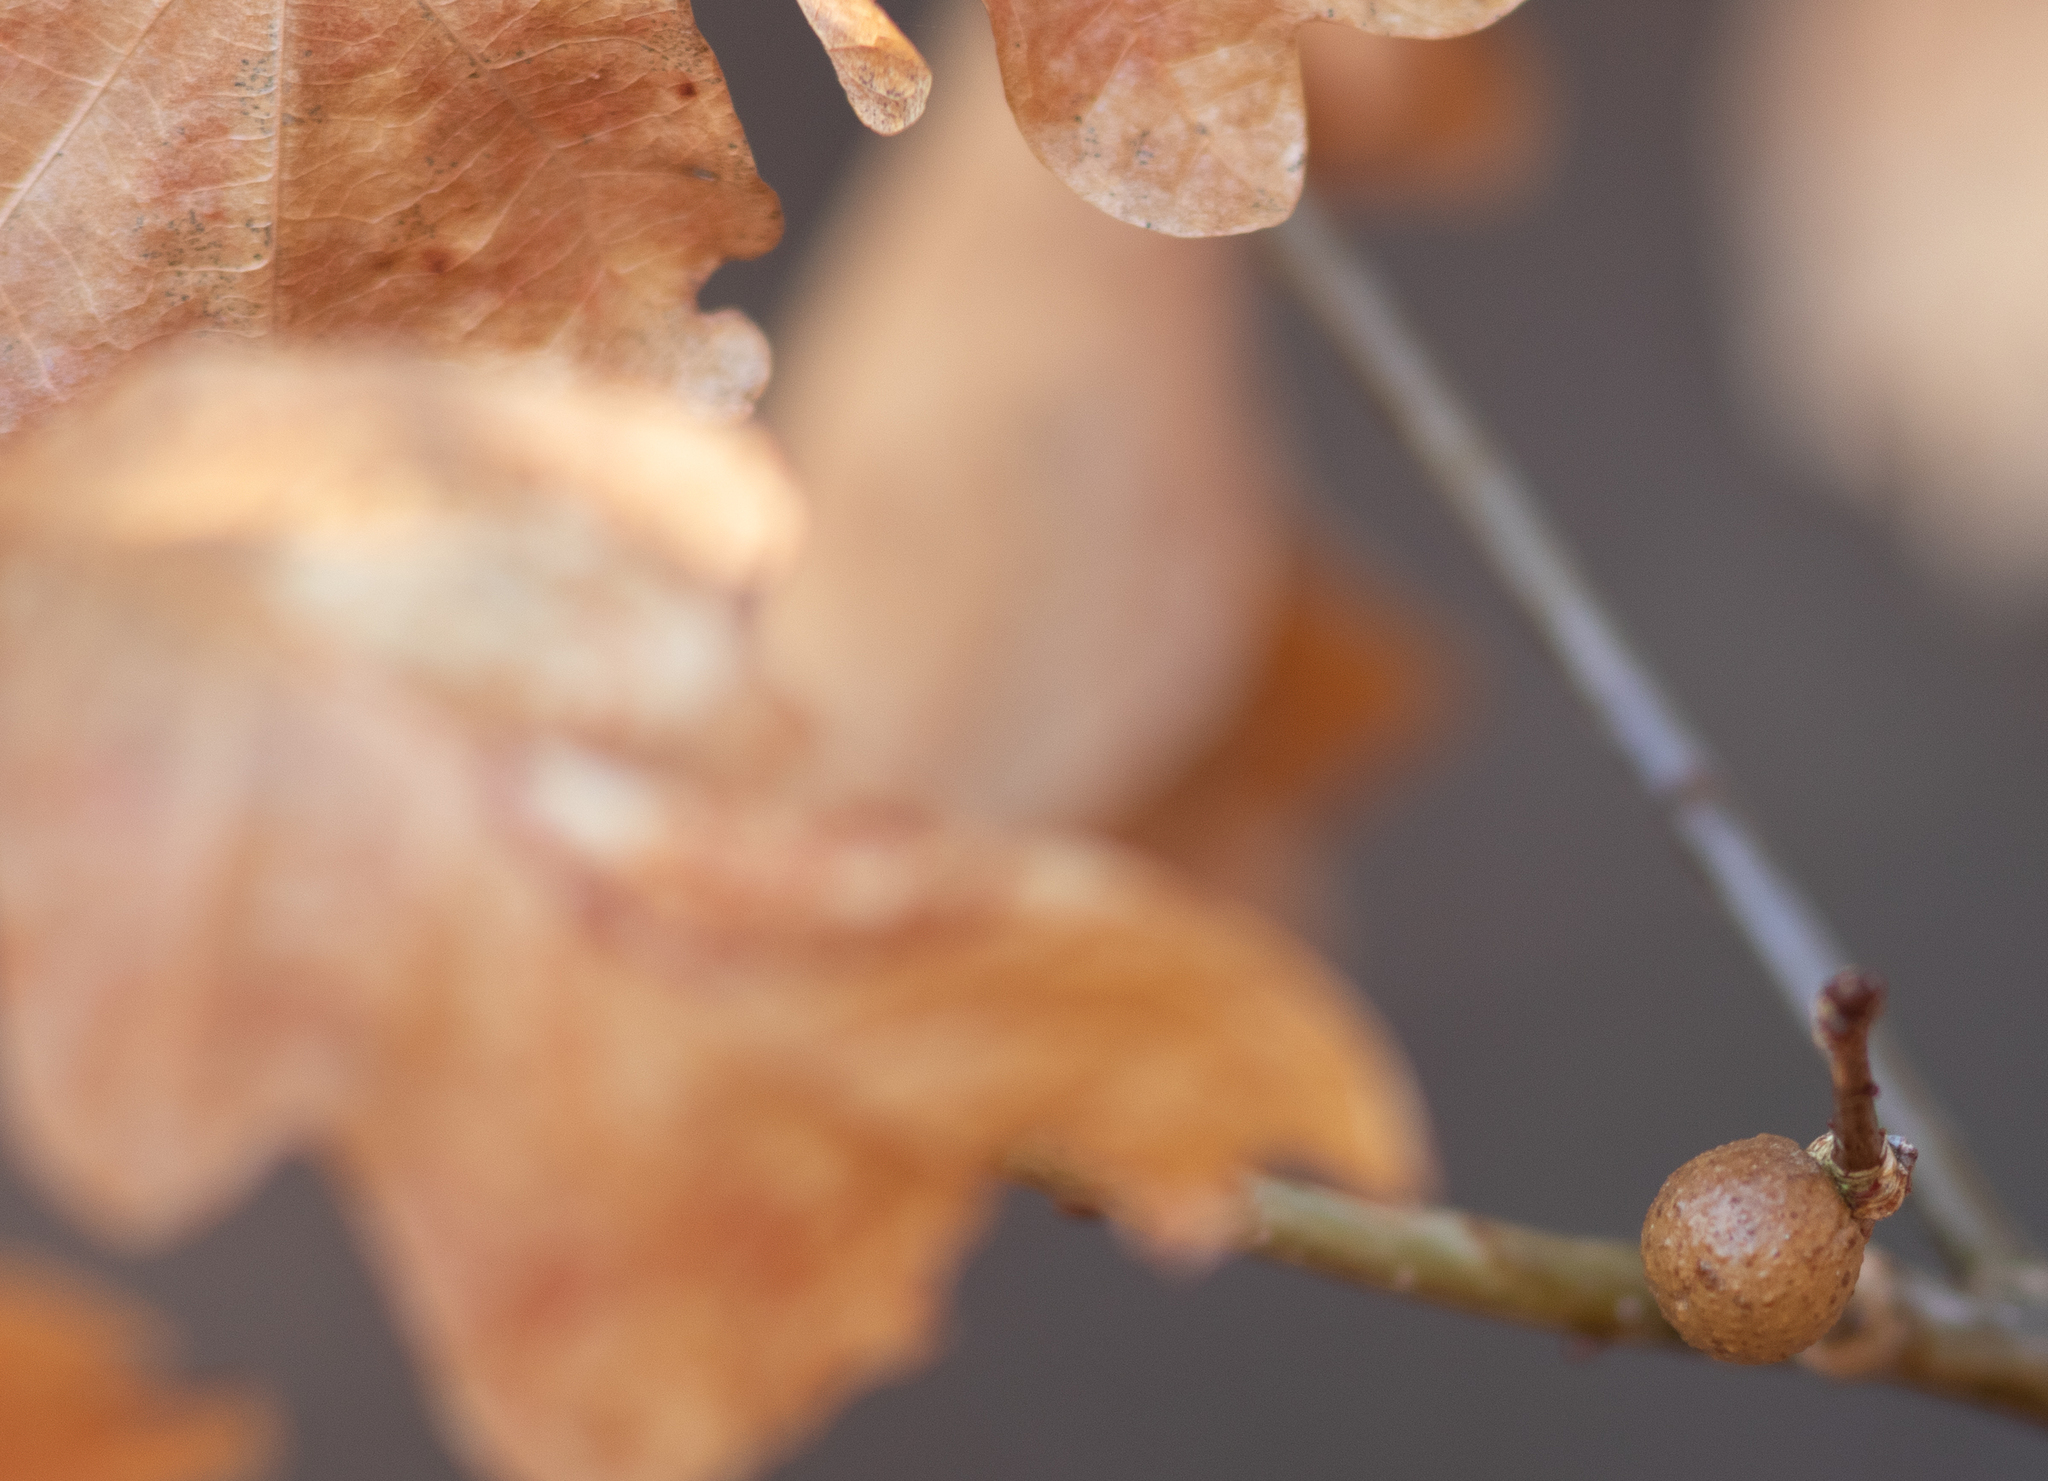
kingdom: Animalia
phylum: Arthropoda
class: Insecta
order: Hymenoptera
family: Cynipidae
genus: Disholcaspis
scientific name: Disholcaspis quercusglobulus
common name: Round bullet gall wasp
